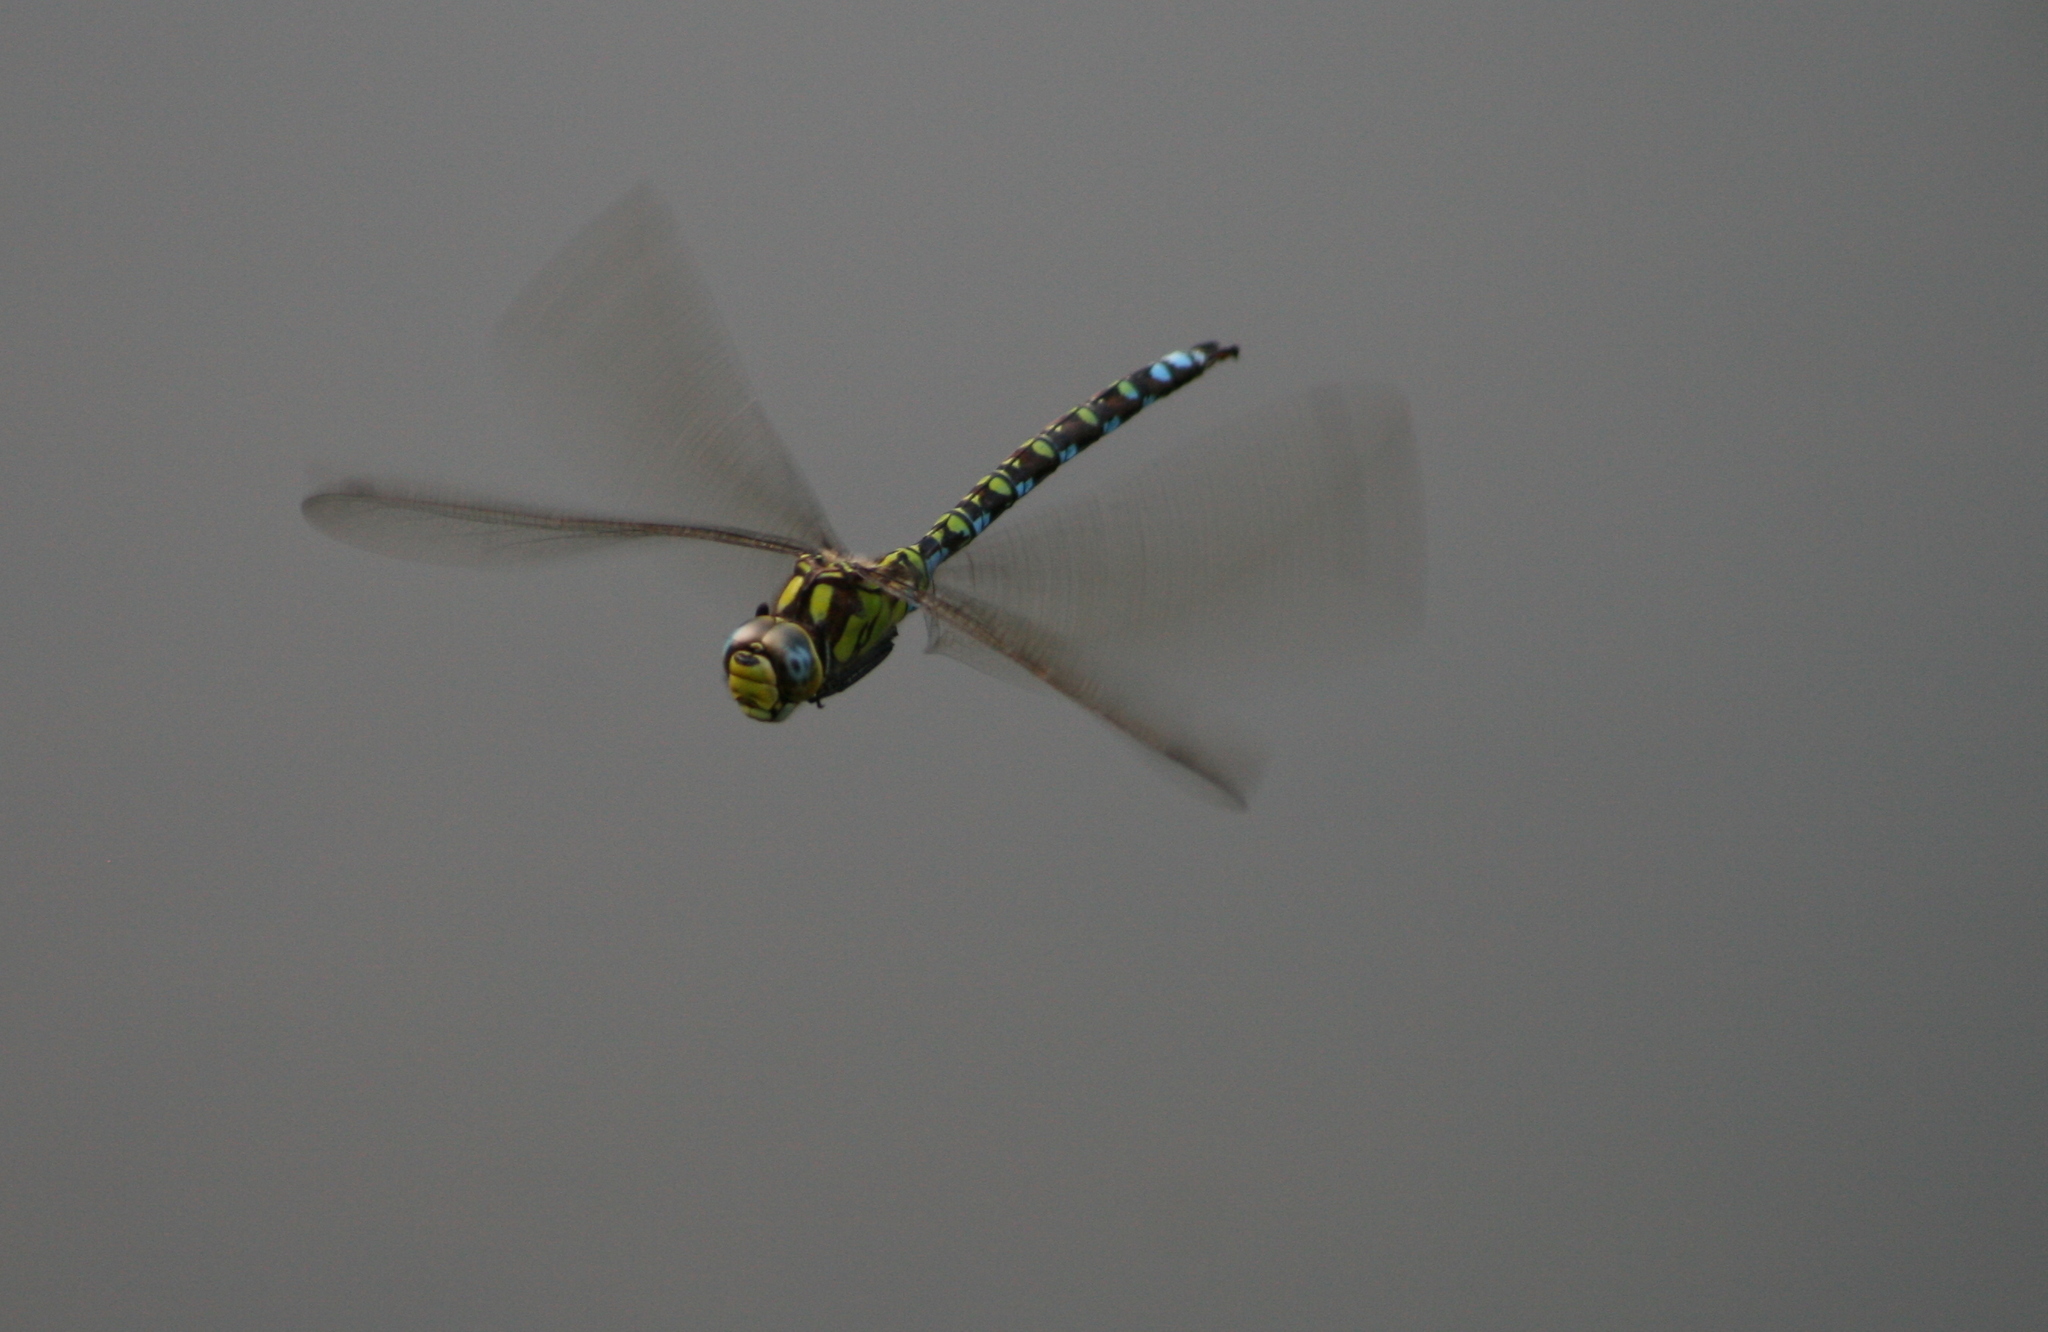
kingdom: Animalia
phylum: Arthropoda
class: Insecta
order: Odonata
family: Aeshnidae
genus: Aeshna
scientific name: Aeshna cyanea
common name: Southern hawker
